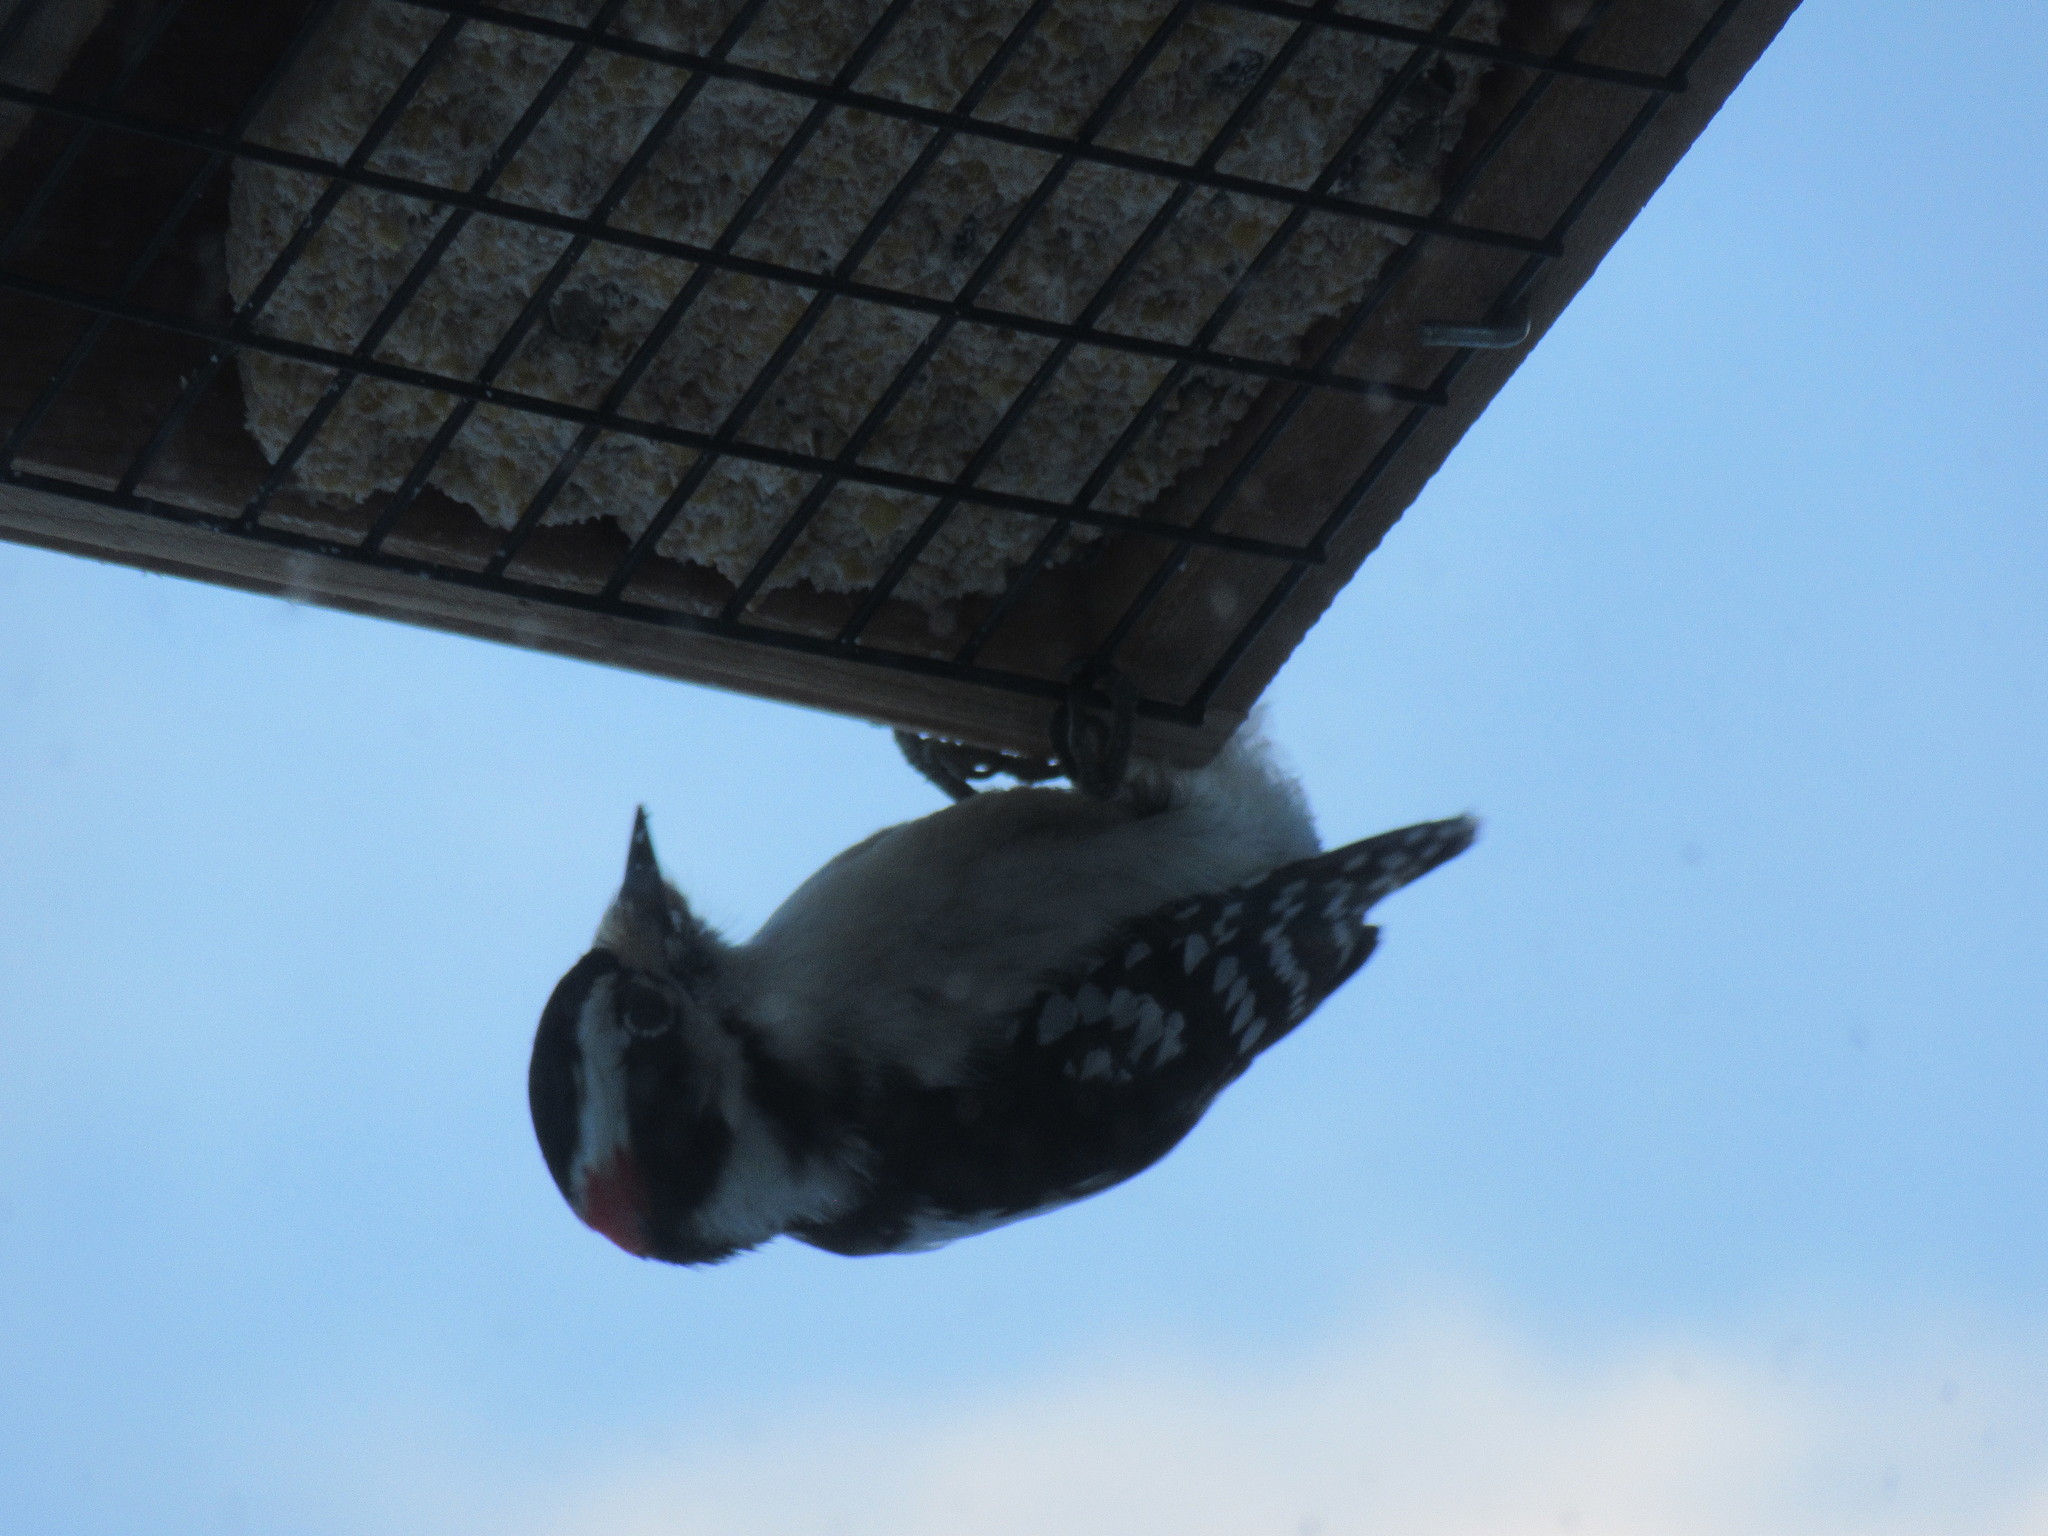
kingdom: Animalia
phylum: Chordata
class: Aves
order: Piciformes
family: Picidae
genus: Dryobates
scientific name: Dryobates pubescens
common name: Downy woodpecker
